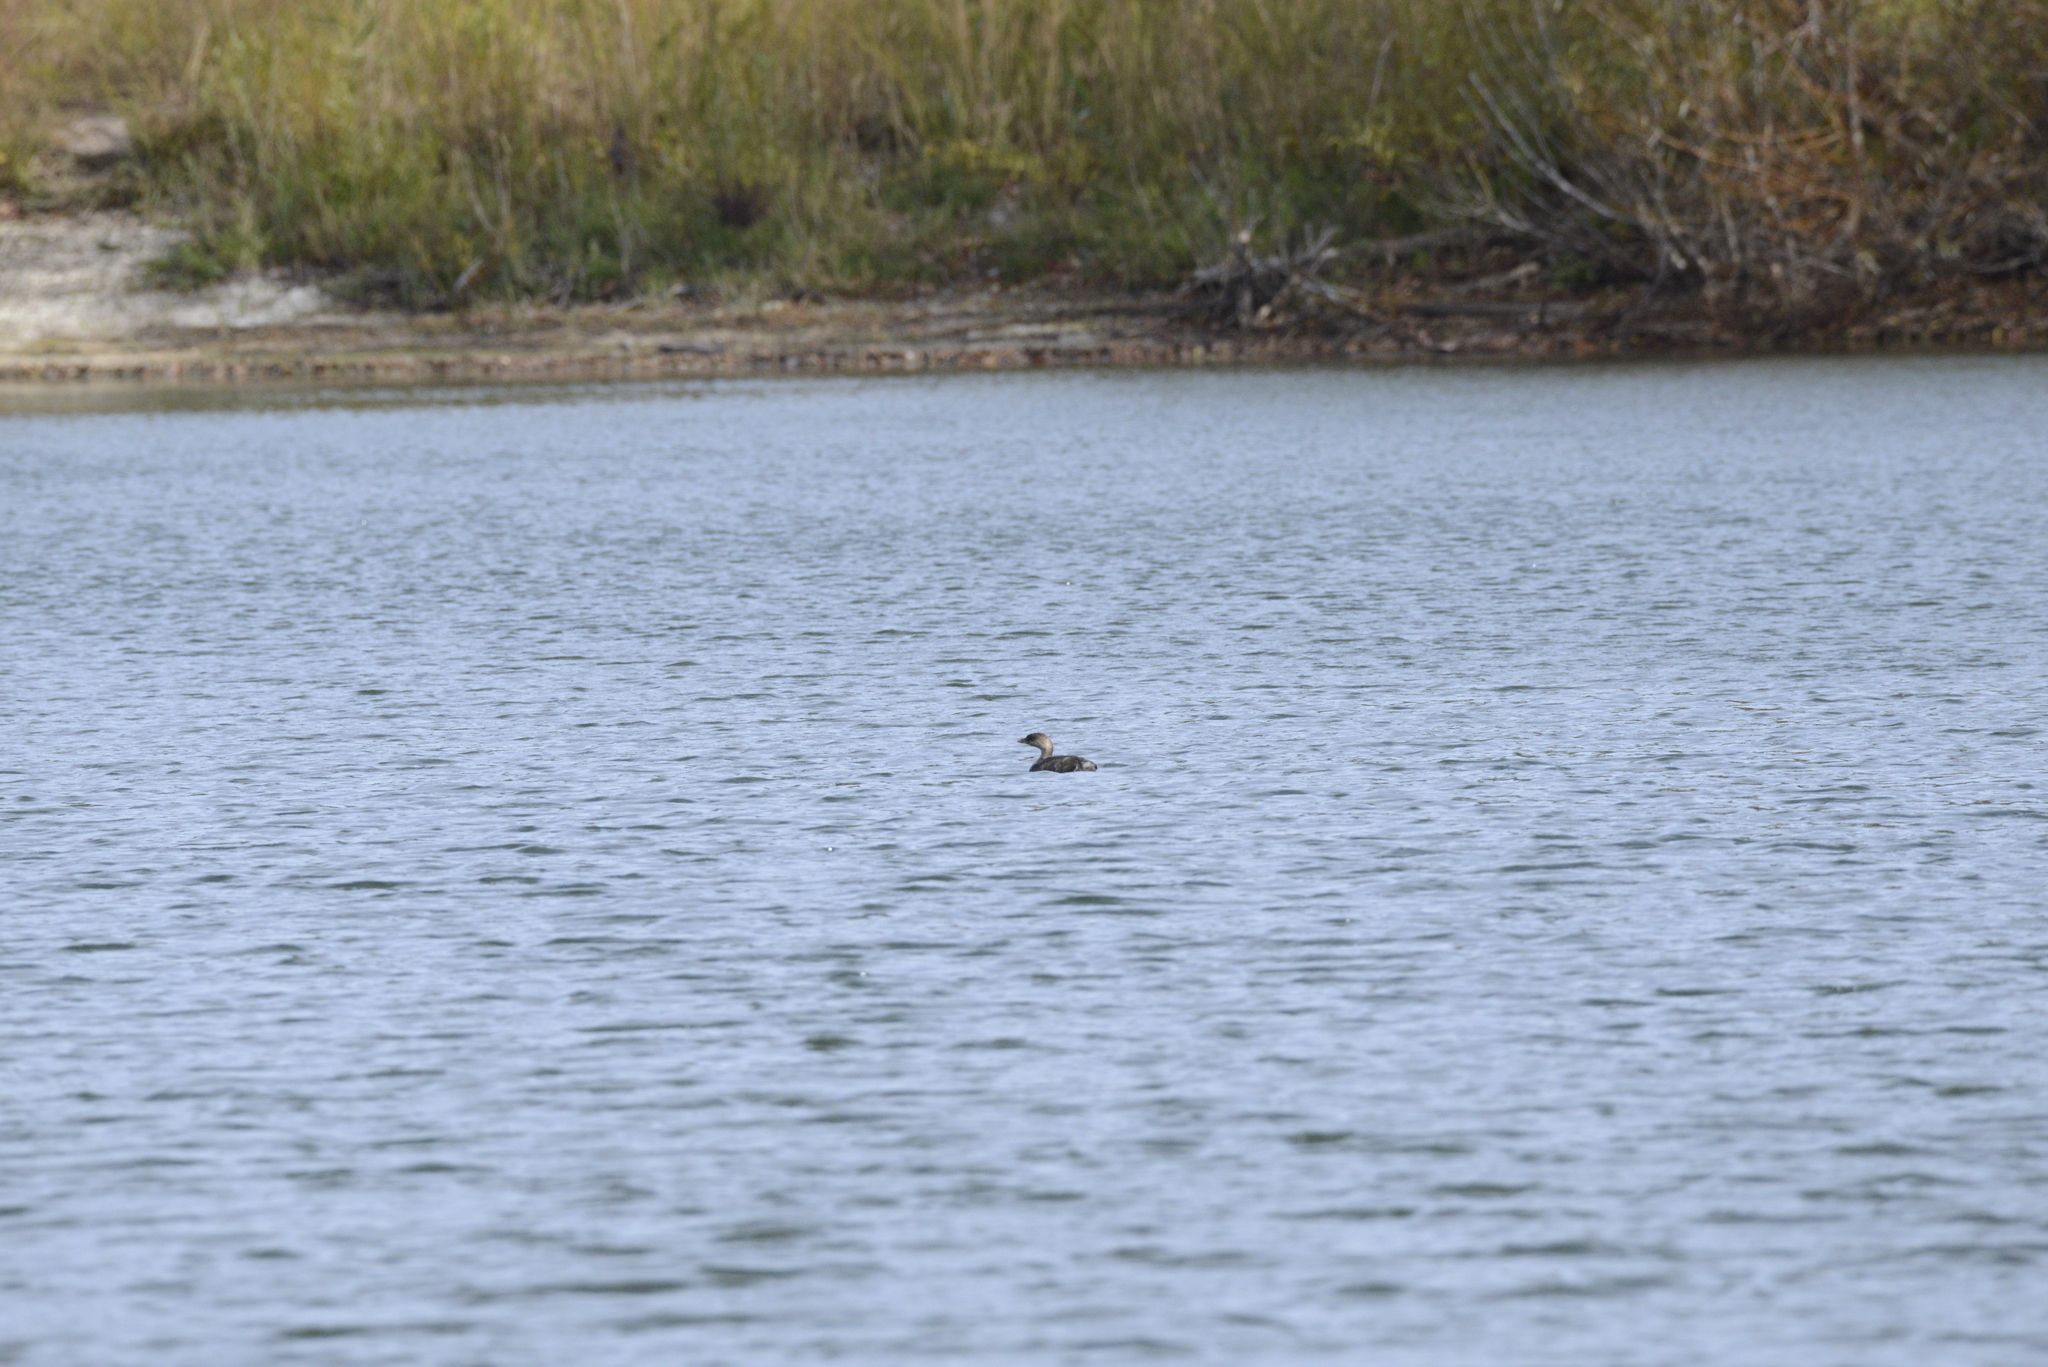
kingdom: Animalia
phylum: Chordata
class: Aves
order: Podicipediformes
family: Podicipedidae
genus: Podilymbus
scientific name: Podilymbus podiceps
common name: Pied-billed grebe
